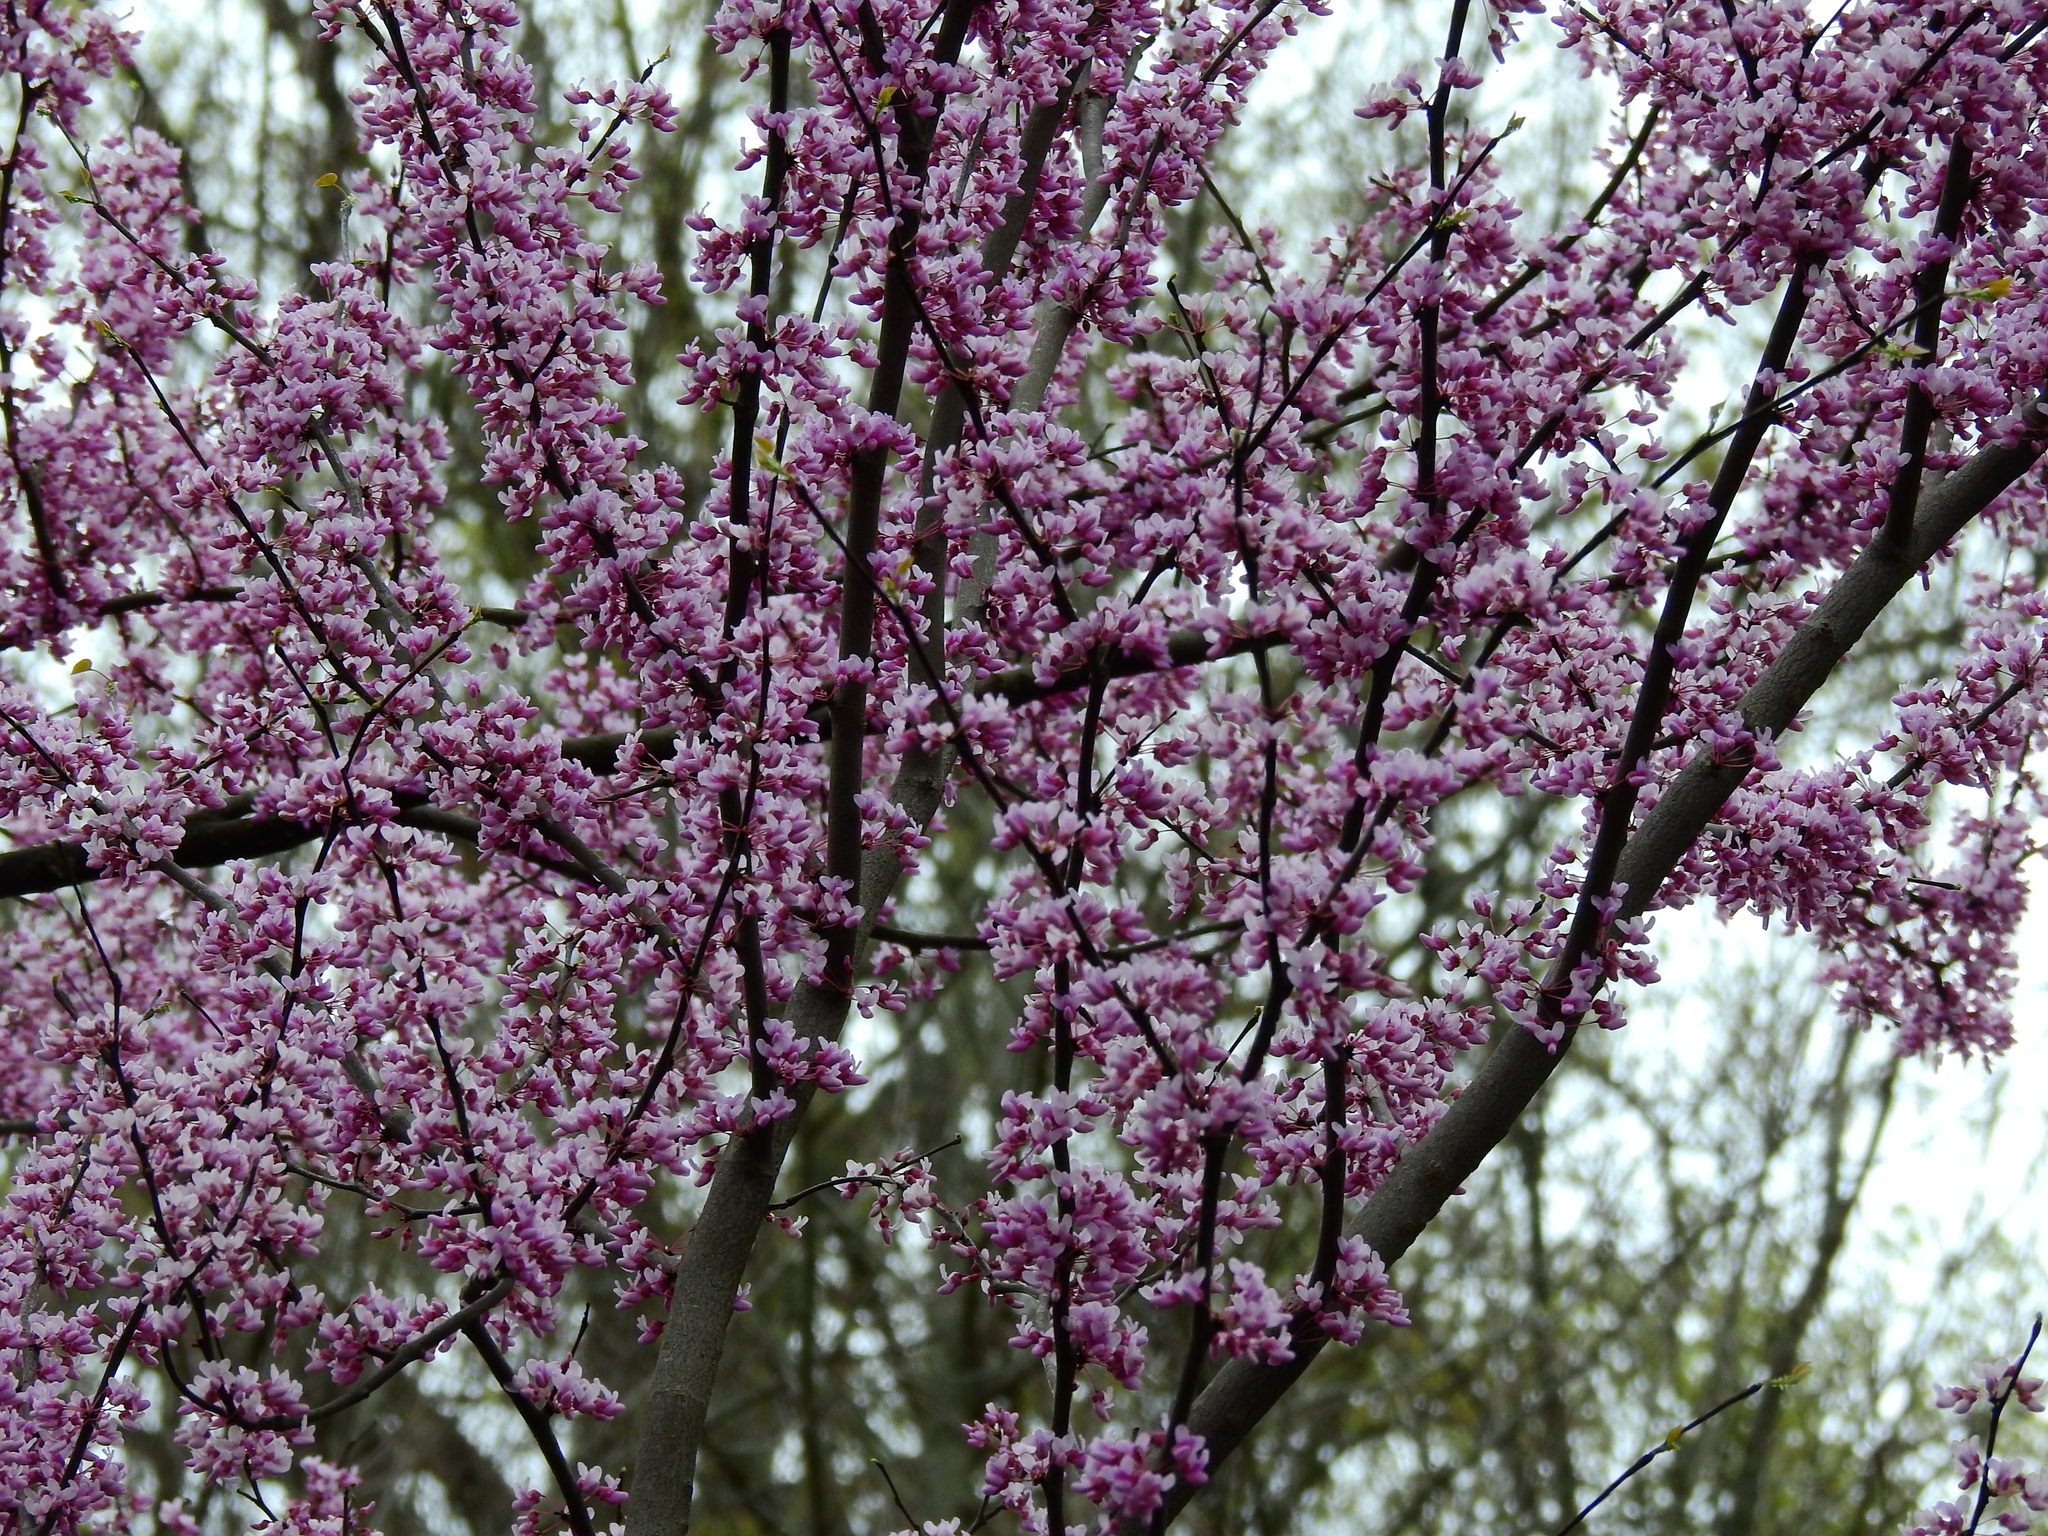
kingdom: Plantae
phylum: Tracheophyta
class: Magnoliopsida
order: Fabales
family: Fabaceae
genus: Cercis
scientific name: Cercis canadensis
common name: Eastern redbud
